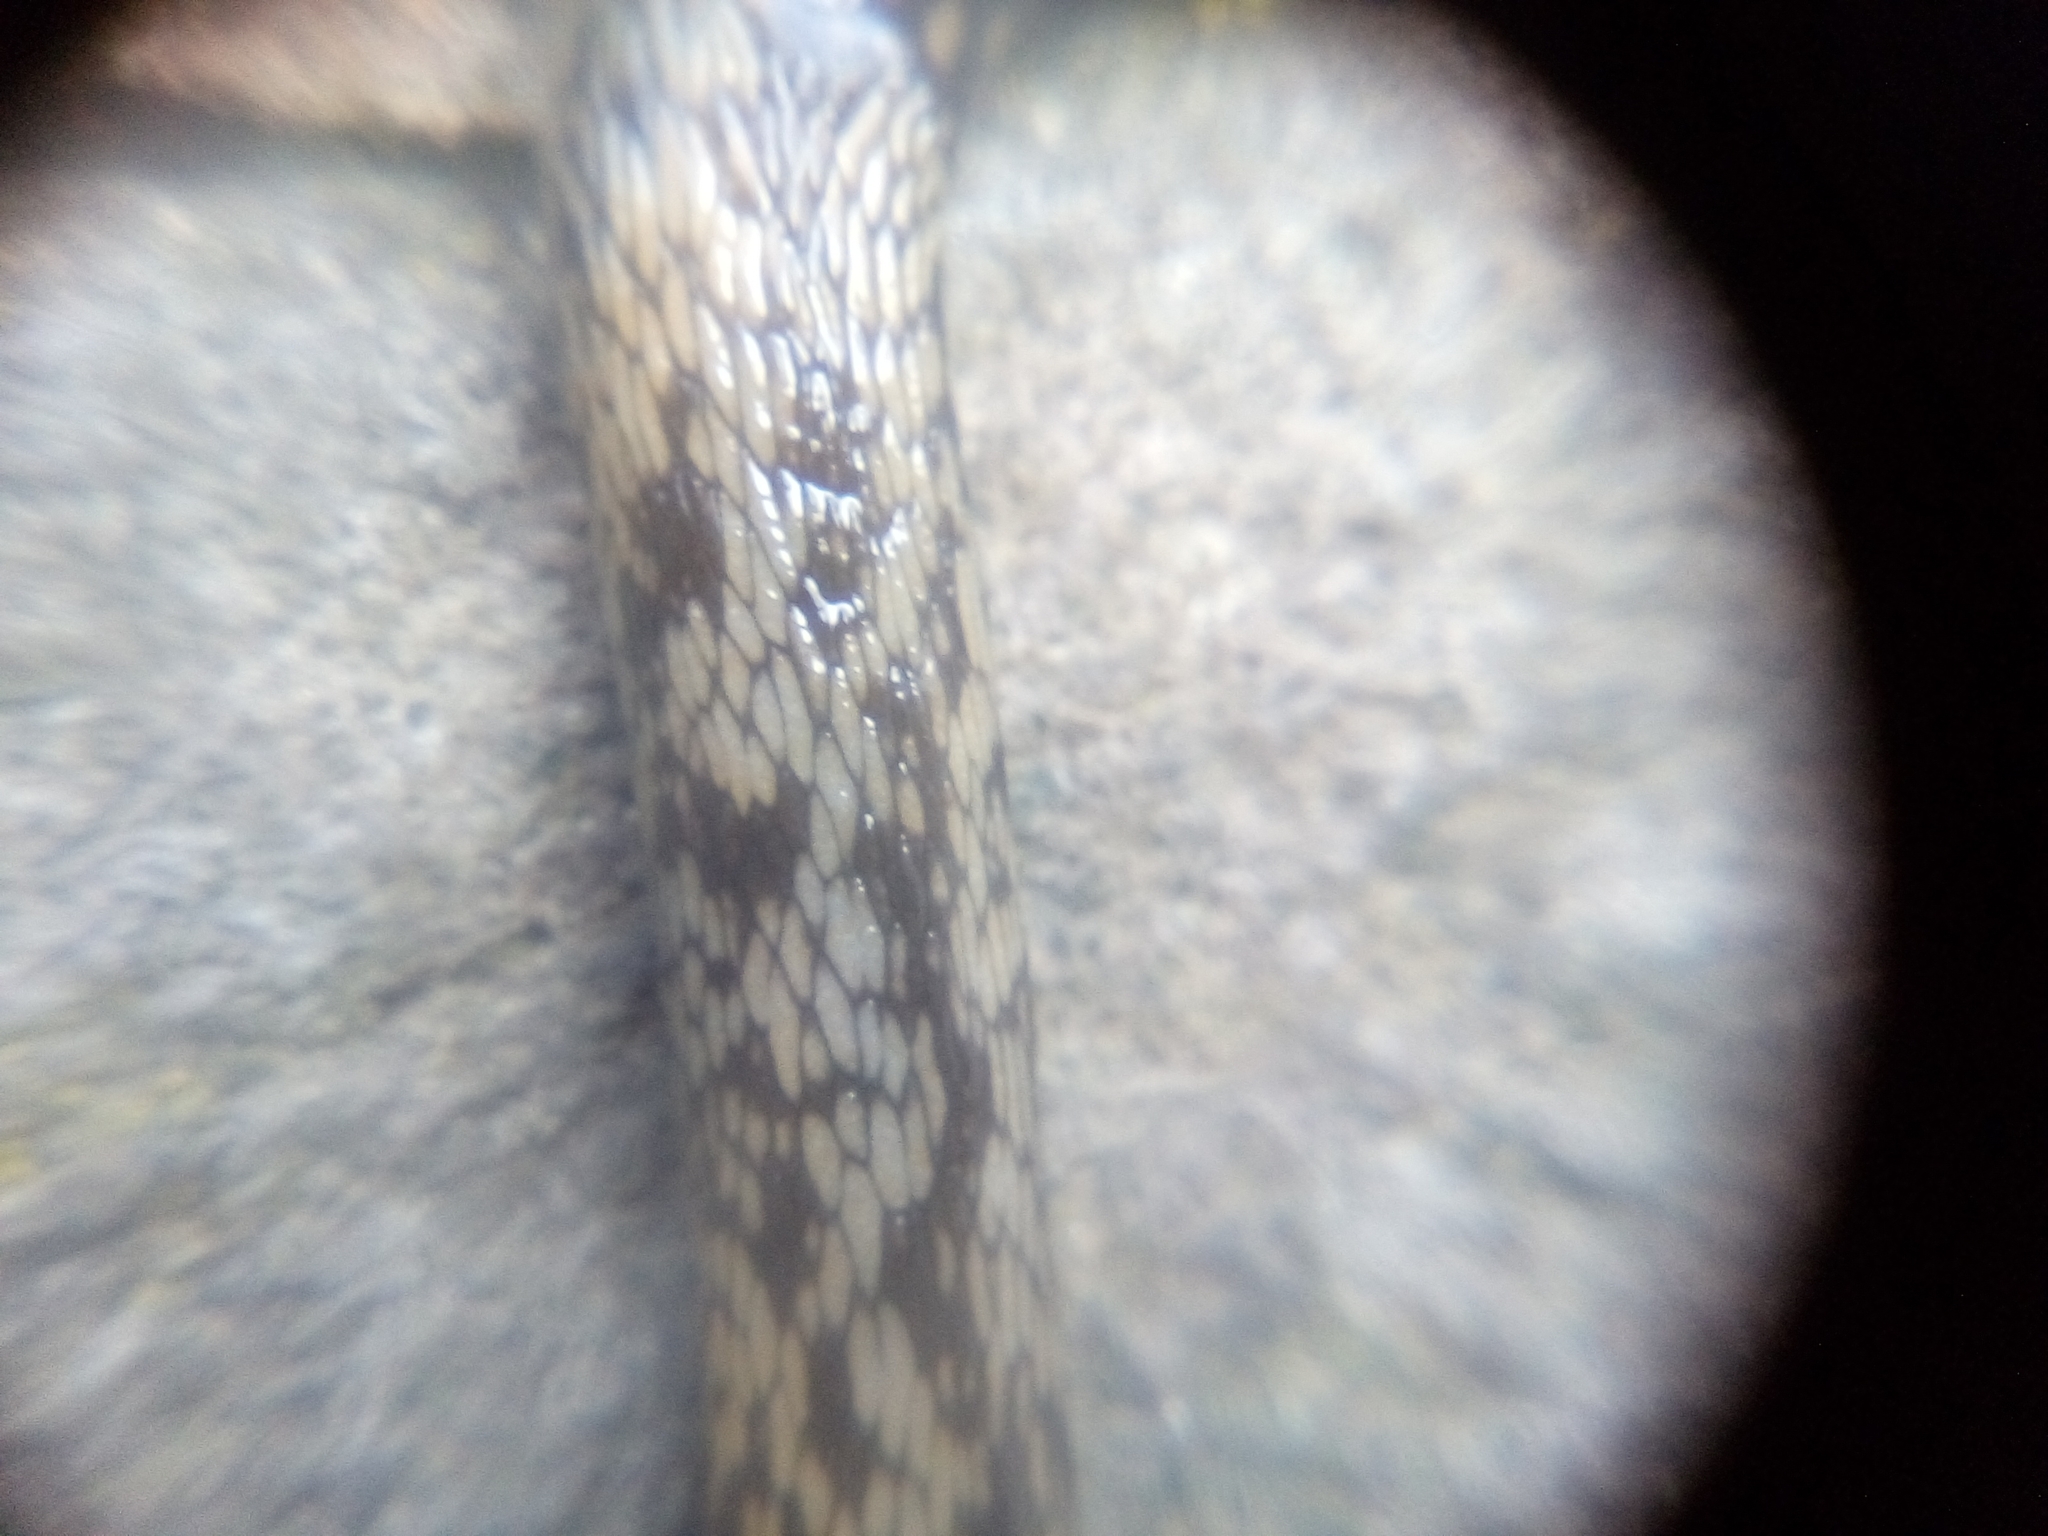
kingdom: Animalia
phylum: Mollusca
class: Gastropoda
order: Stylommatophora
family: Limacidae
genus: Limacus
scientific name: Limacus maculatus
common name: Irish yellow slug
